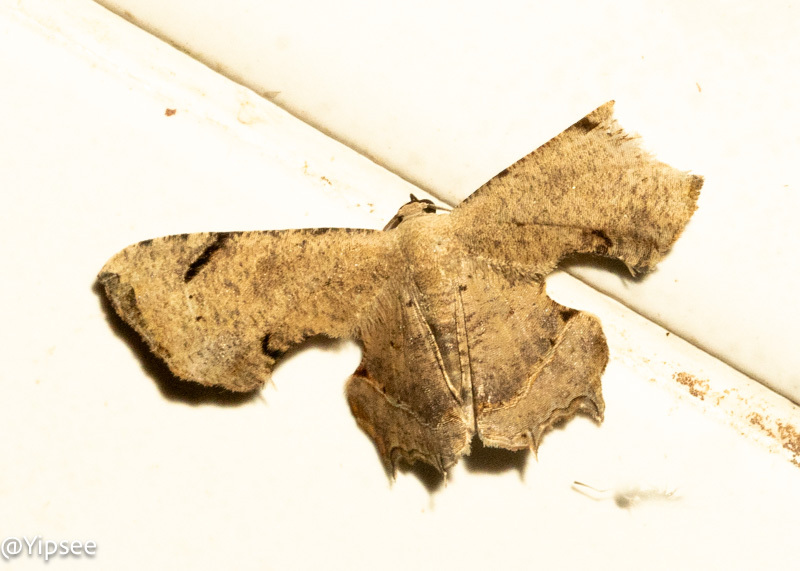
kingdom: Animalia
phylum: Arthropoda
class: Insecta
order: Lepidoptera
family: Uraniidae
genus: Dysaethria
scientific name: Dysaethria quadricaudata
